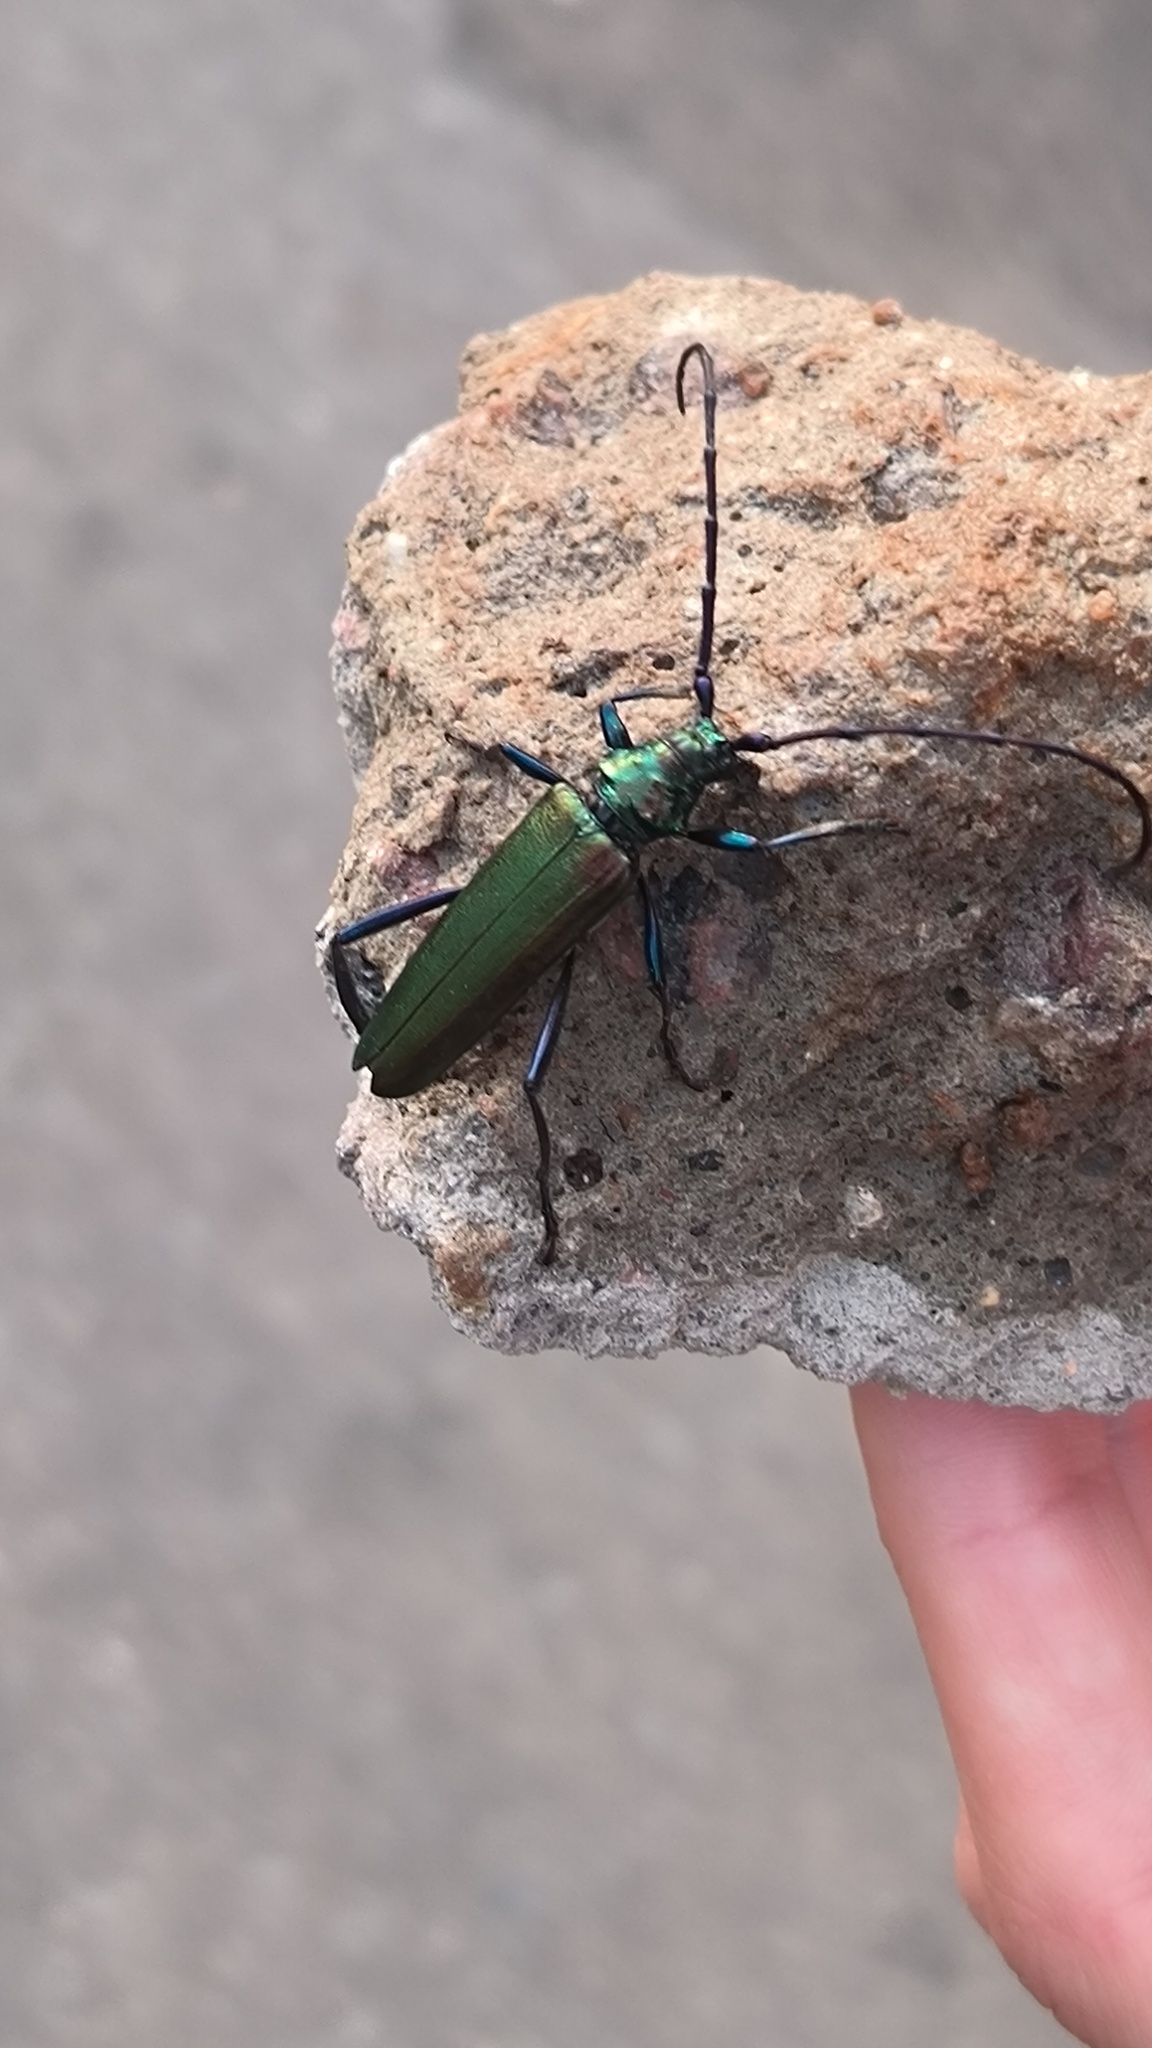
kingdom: Animalia
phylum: Arthropoda
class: Insecta
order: Coleoptera
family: Cerambycidae
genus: Aromia
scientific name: Aromia moschata
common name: Musk beetle
